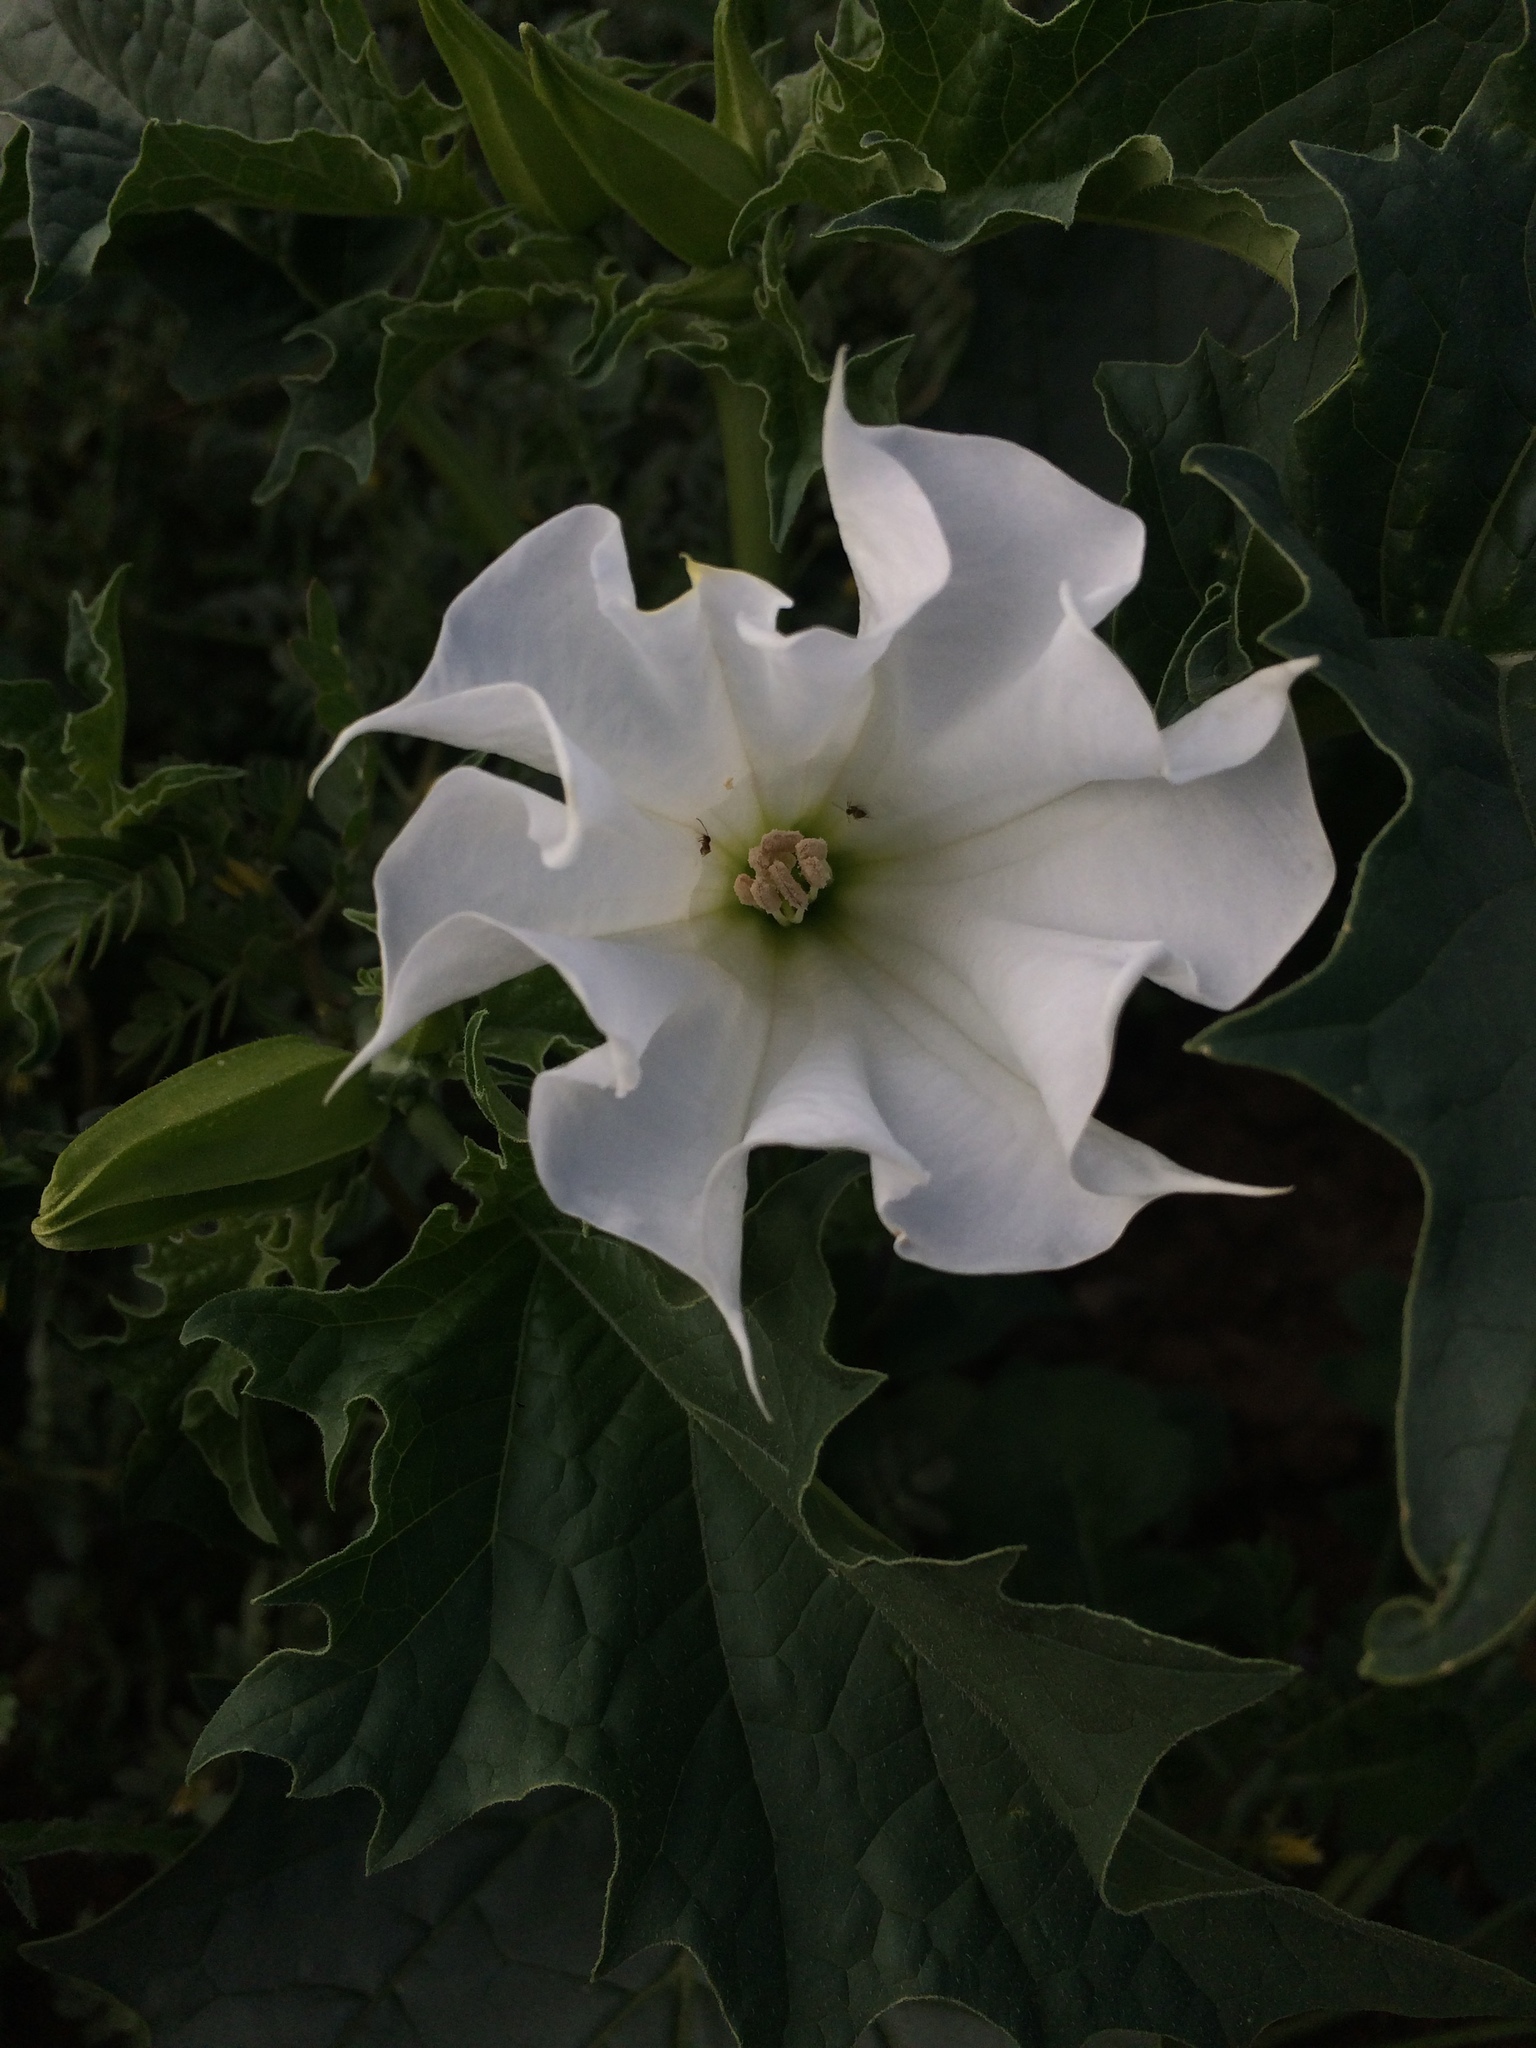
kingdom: Plantae
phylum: Tracheophyta
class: Magnoliopsida
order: Solanales
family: Solanaceae
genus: Datura
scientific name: Datura stramonium
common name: Thorn-apple
